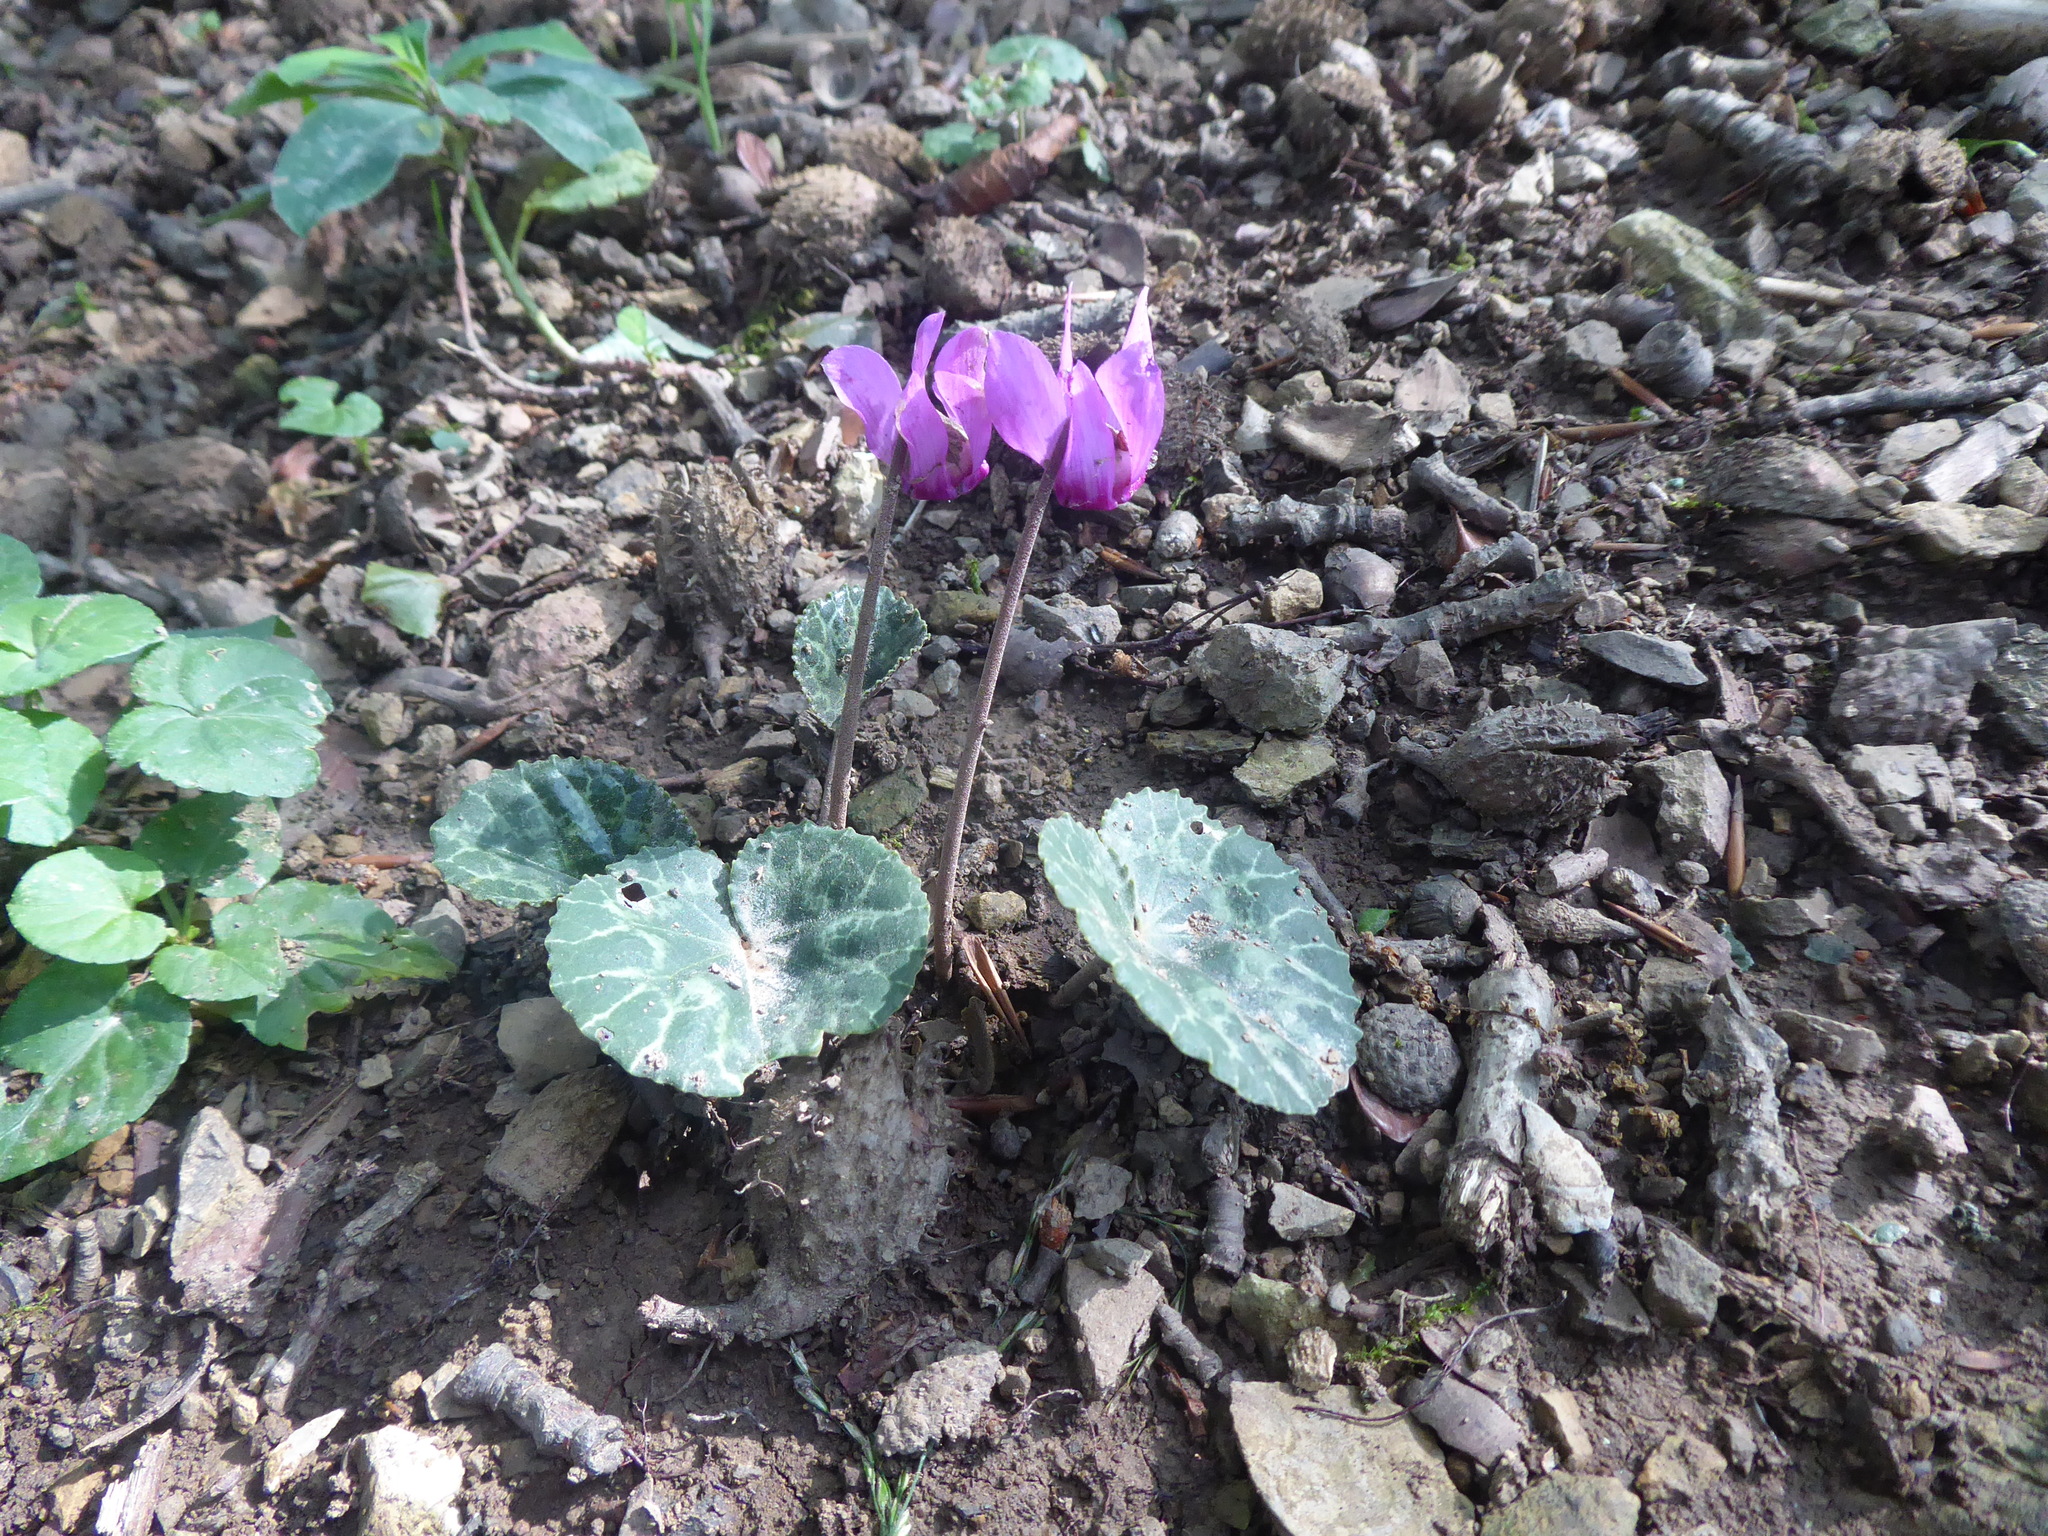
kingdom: Plantae
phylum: Tracheophyta
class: Magnoliopsida
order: Ericales
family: Primulaceae
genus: Cyclamen
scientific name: Cyclamen purpurascens
